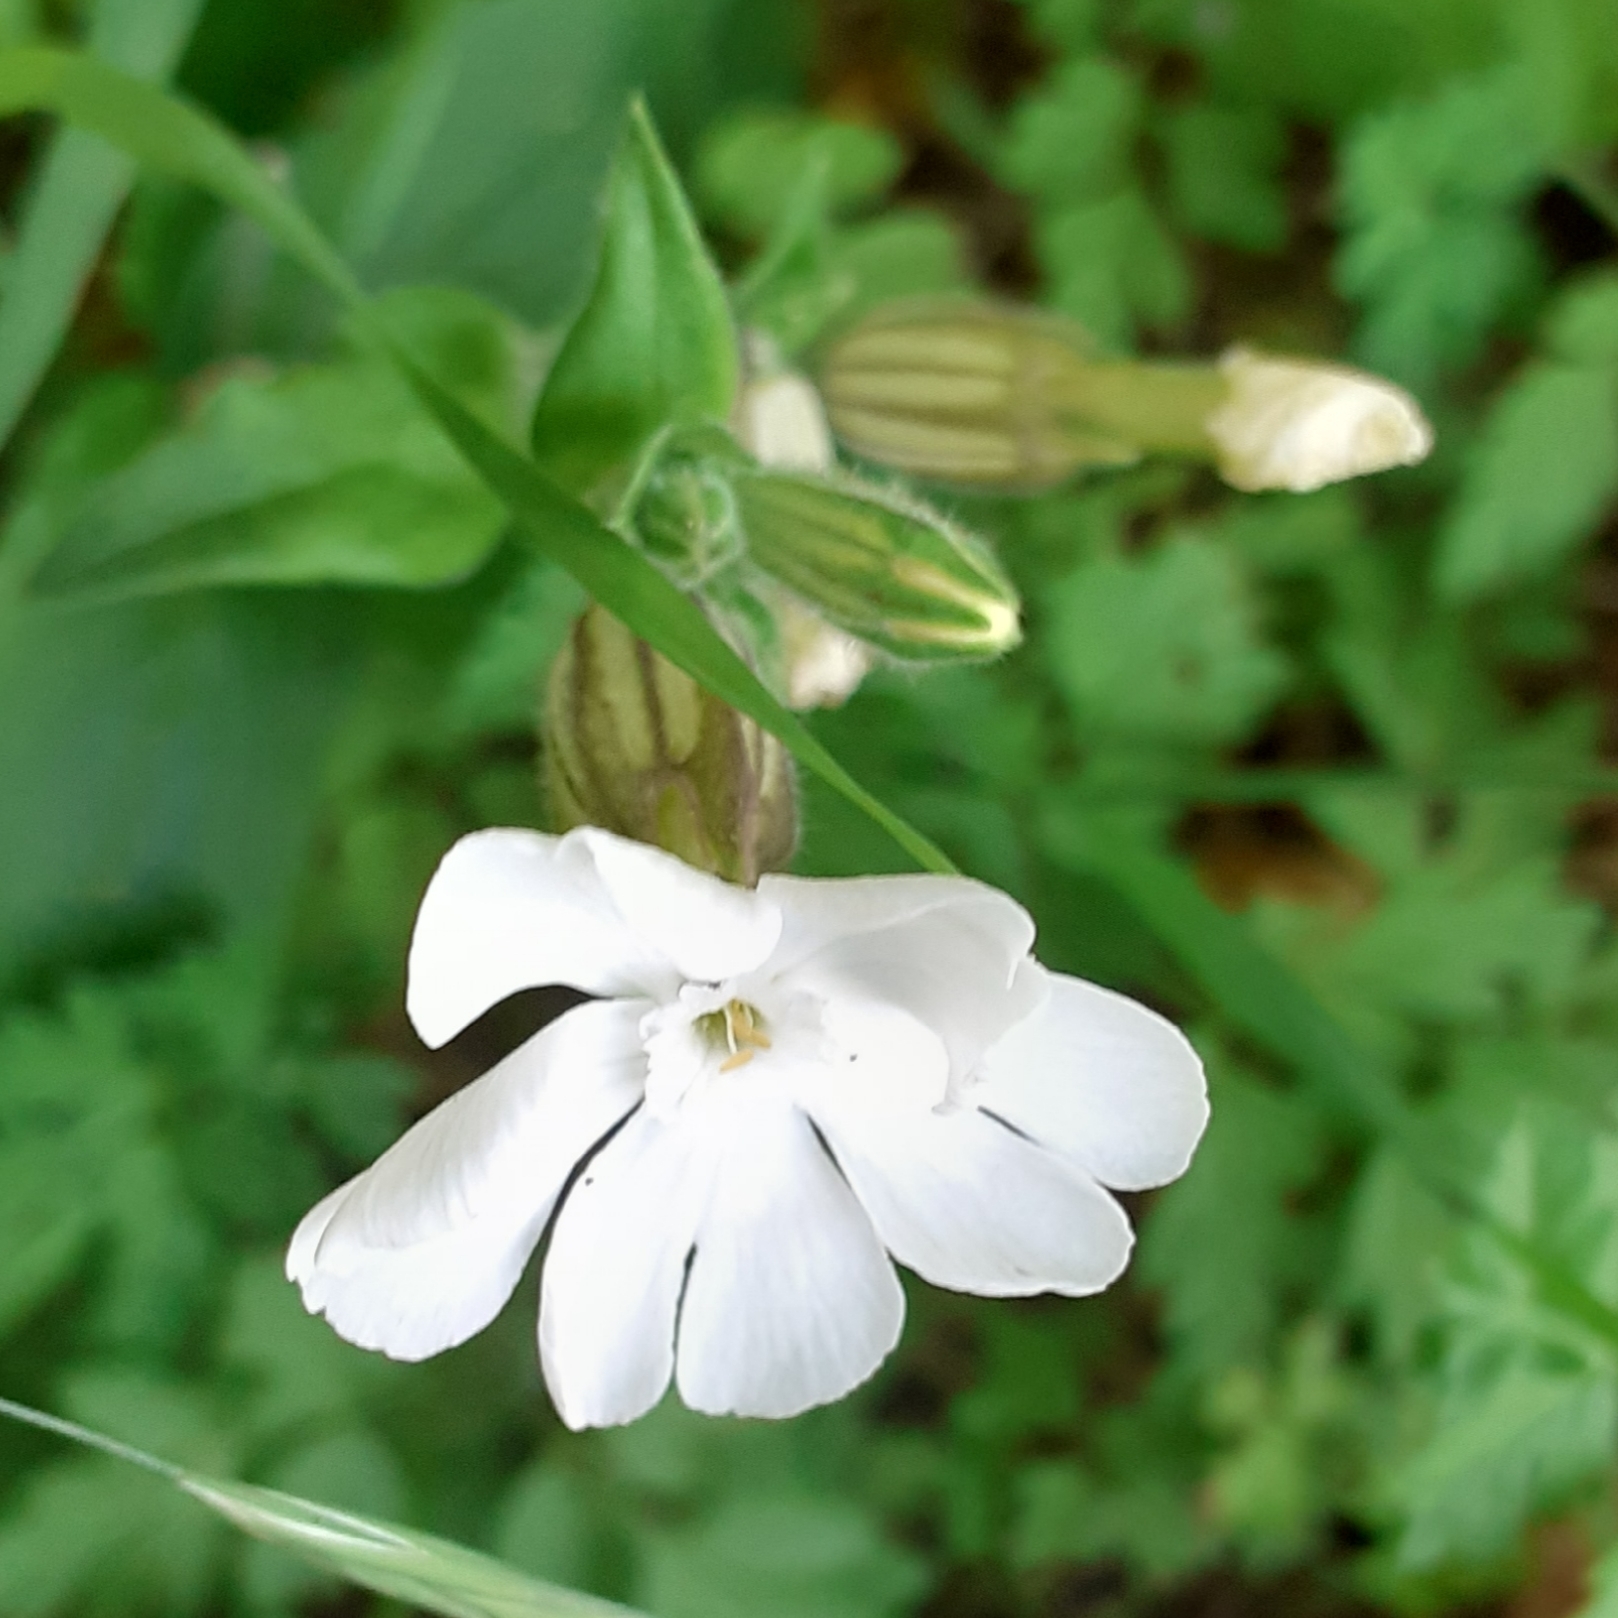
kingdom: Plantae
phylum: Tracheophyta
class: Magnoliopsida
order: Caryophyllales
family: Caryophyllaceae
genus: Silene
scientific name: Silene latifolia
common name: White campion
